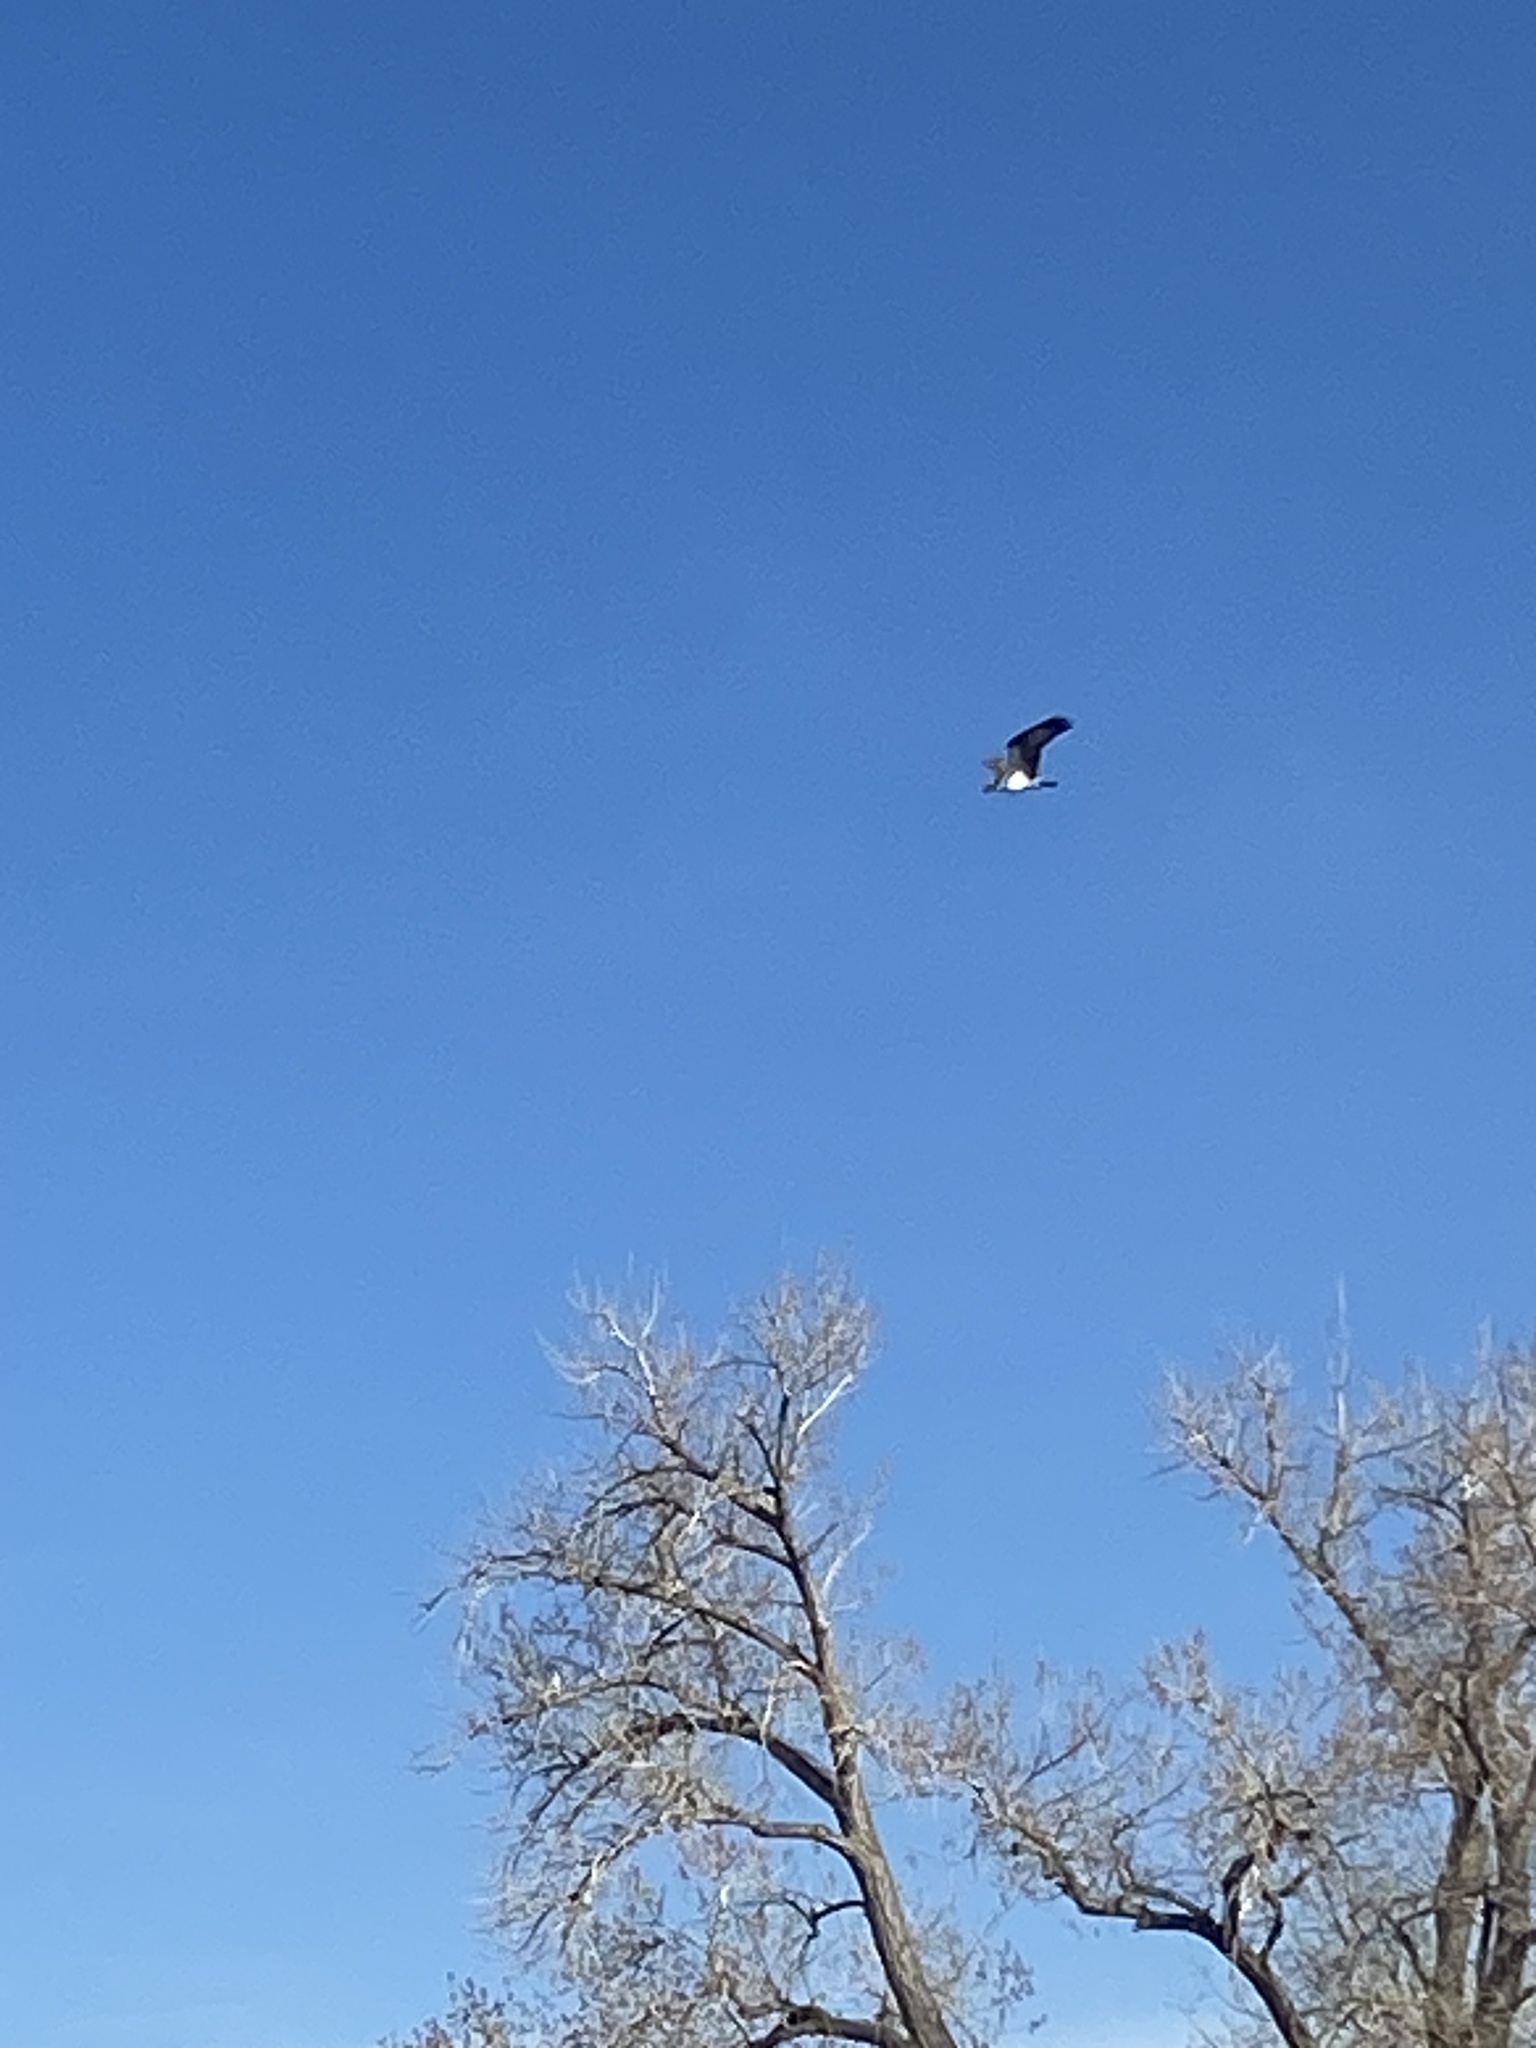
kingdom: Animalia
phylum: Chordata
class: Aves
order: Accipitriformes
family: Pandionidae
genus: Pandion
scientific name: Pandion haliaetus
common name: Osprey
